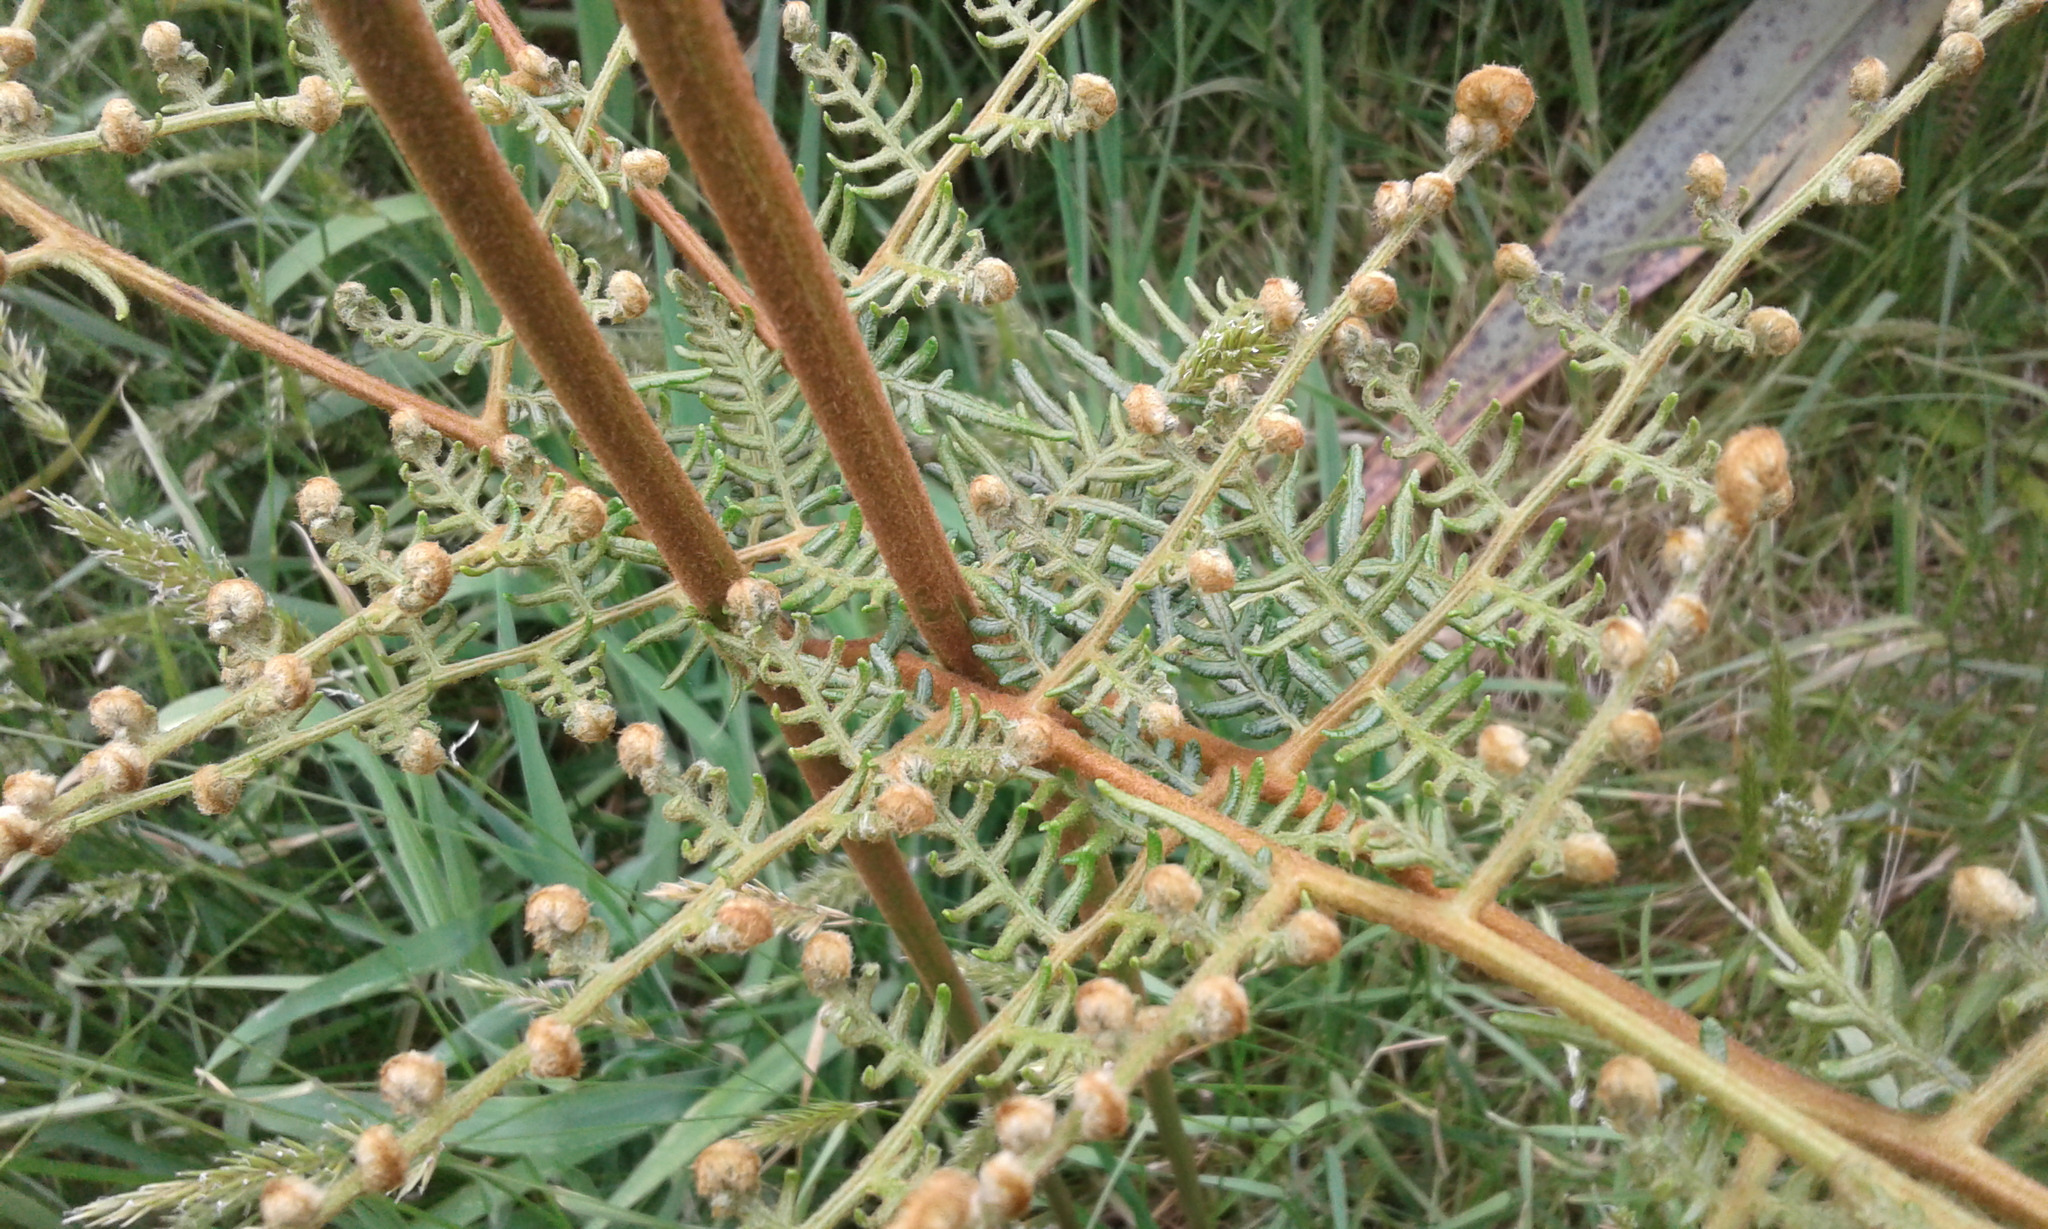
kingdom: Plantae
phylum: Tracheophyta
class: Polypodiopsida
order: Polypodiales
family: Dennstaedtiaceae
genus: Pteridium
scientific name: Pteridium esculentum
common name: Bracken fern
